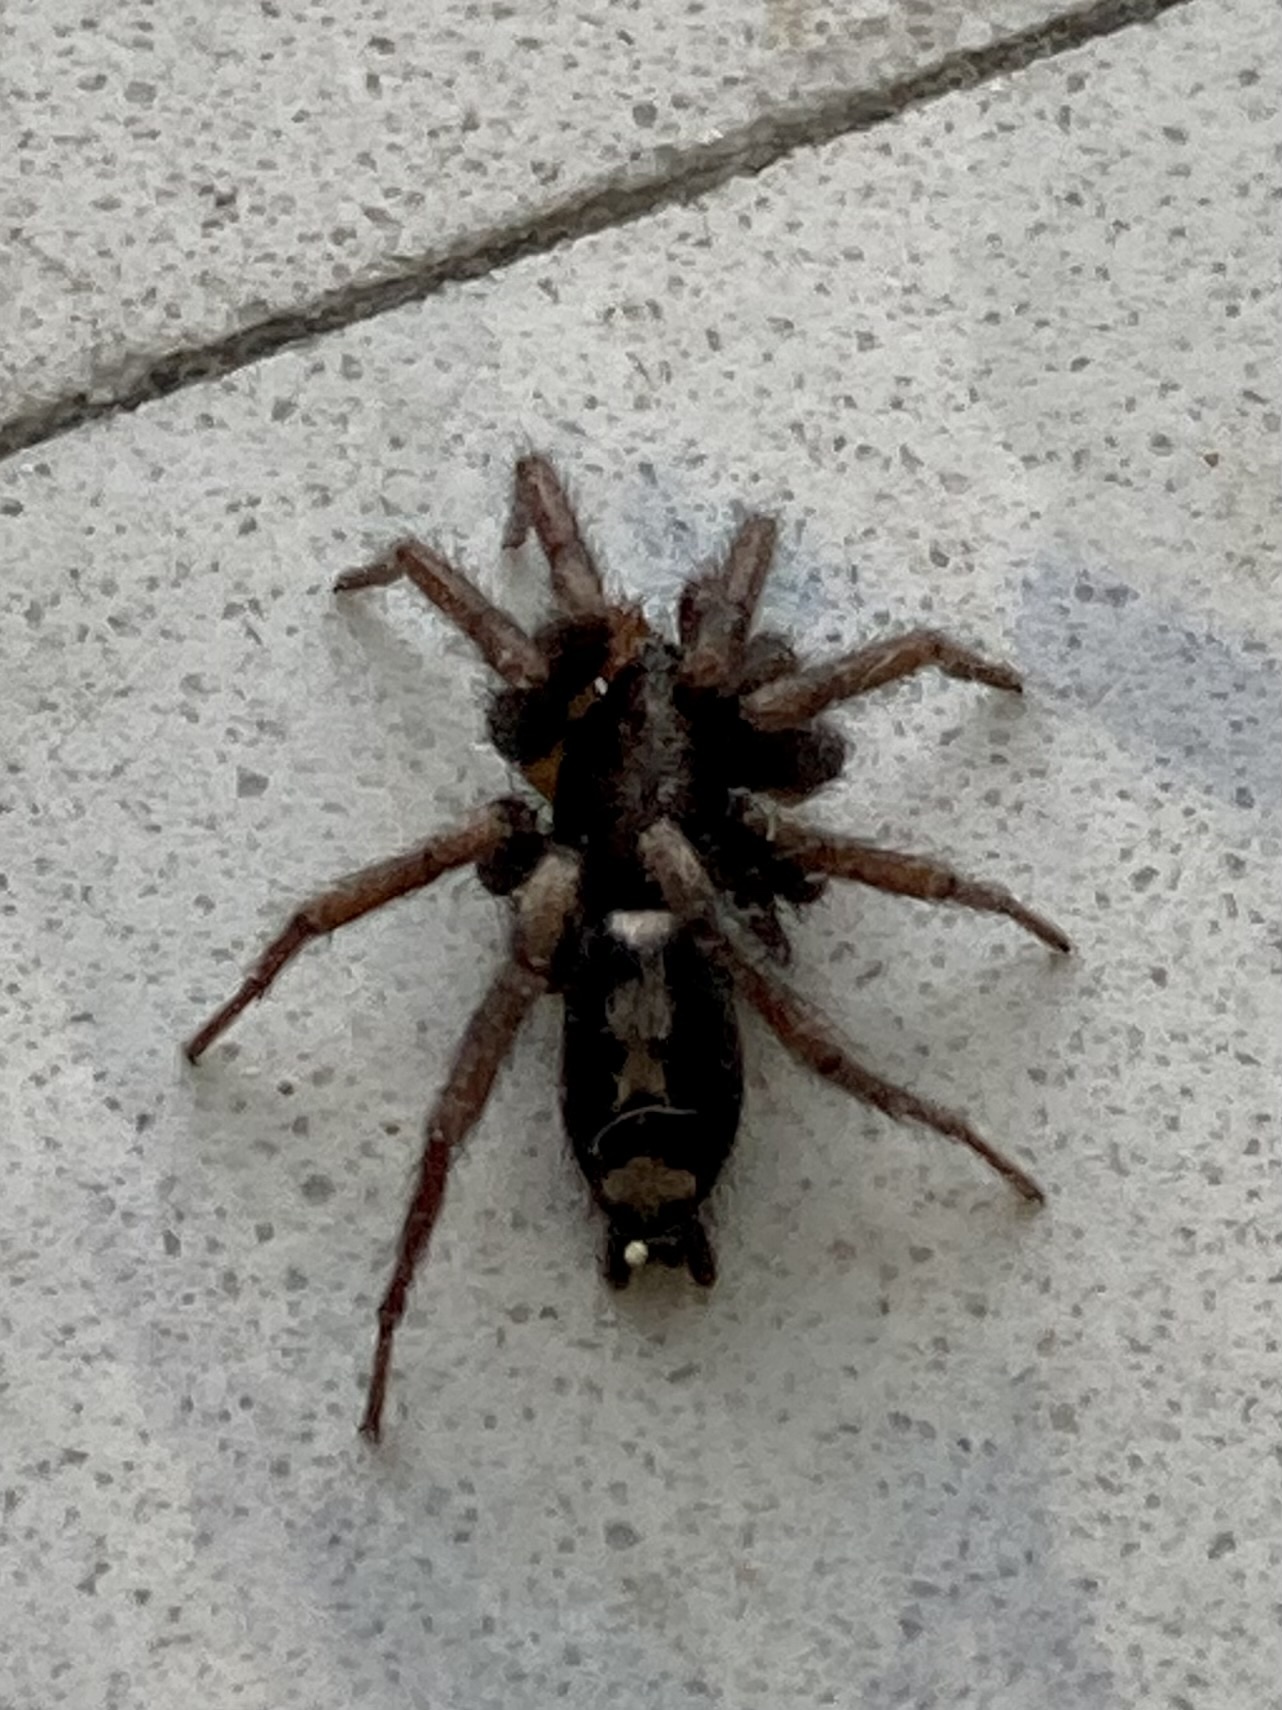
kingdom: Animalia
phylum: Arthropoda
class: Arachnida
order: Araneae
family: Gnaphosidae
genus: Herpyllus
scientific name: Herpyllus ecclesiasticus
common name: Eastern parson spider
